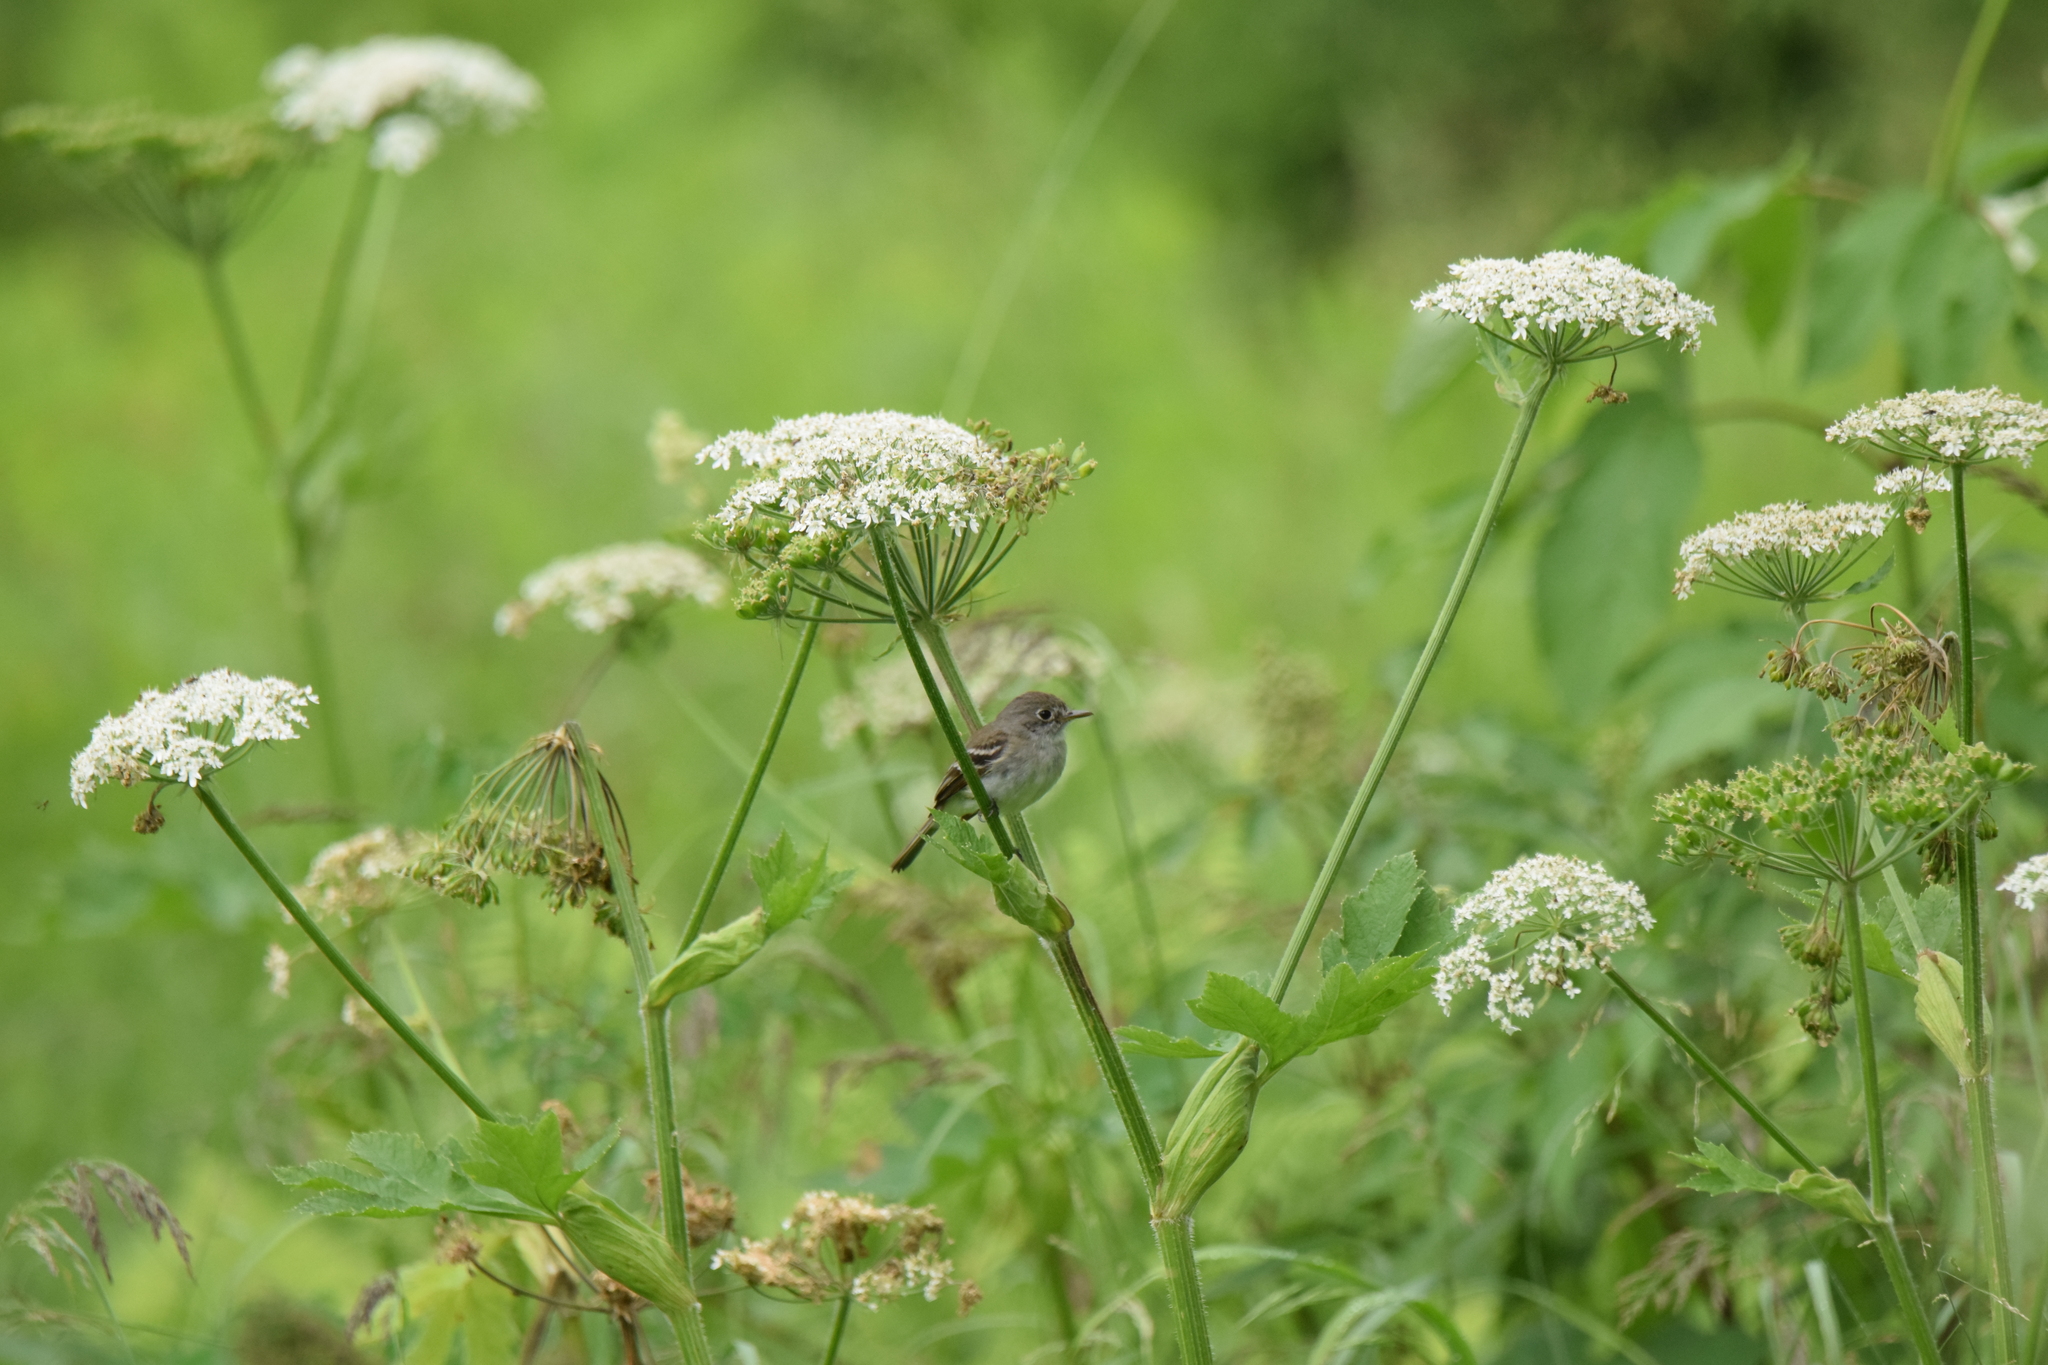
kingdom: Animalia
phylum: Chordata
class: Aves
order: Passeriformes
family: Tyrannidae
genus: Empidonax
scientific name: Empidonax traillii
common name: Willow flycatcher
